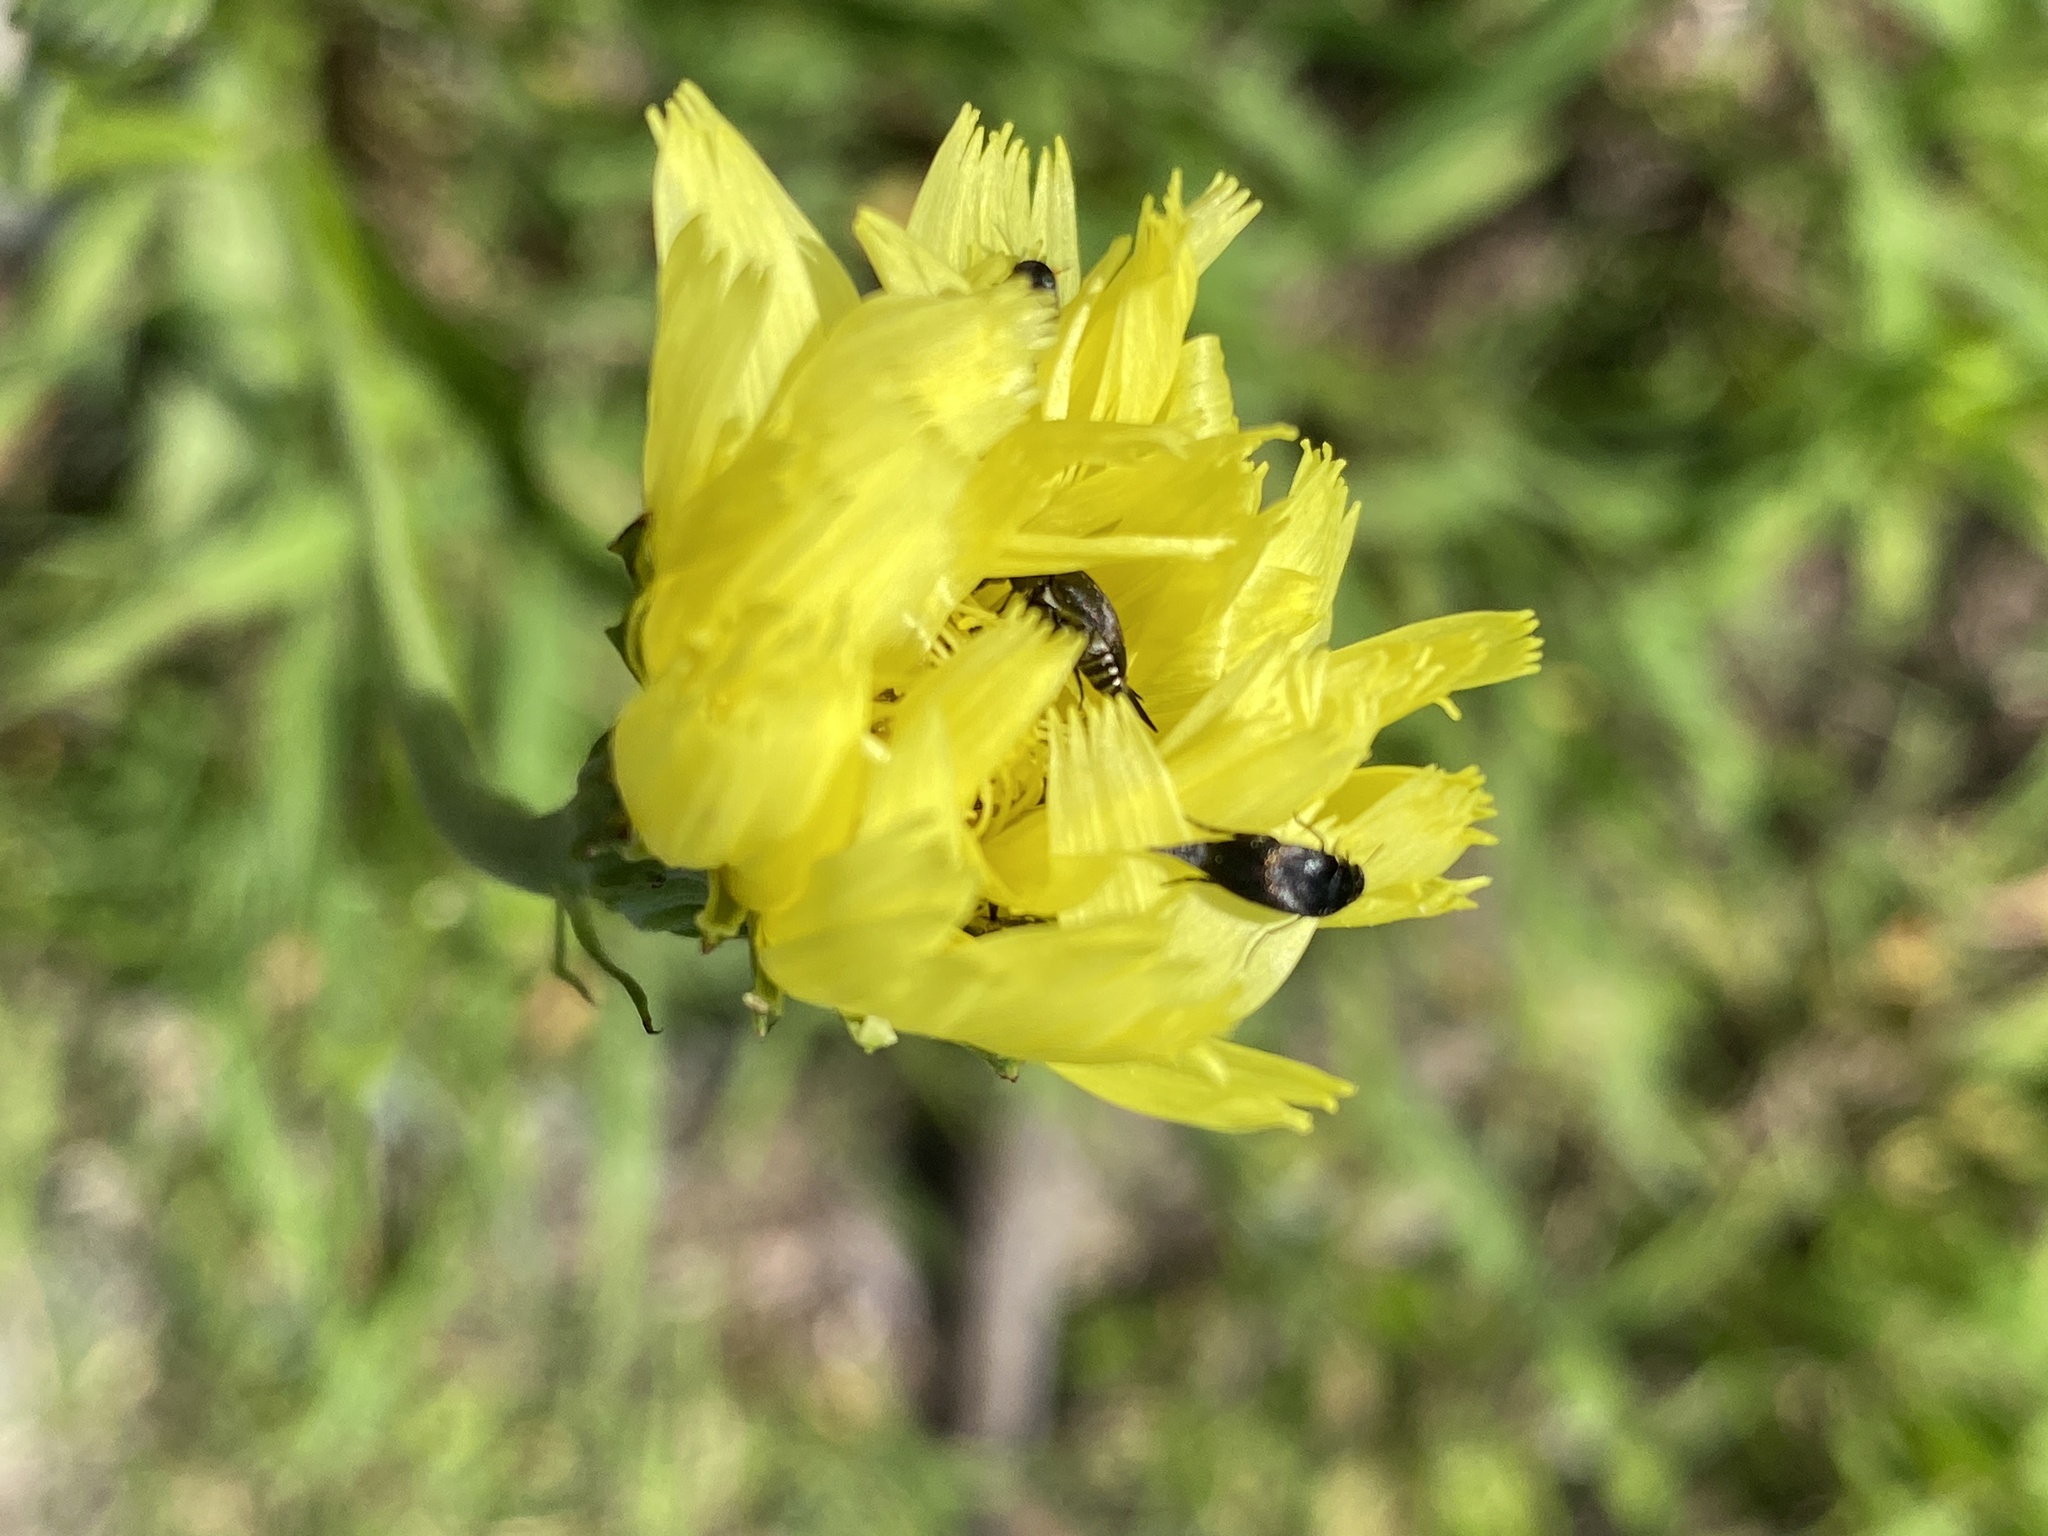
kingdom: Plantae
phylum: Tracheophyta
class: Magnoliopsida
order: Asterales
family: Asteraceae
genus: Pyrrhopappus
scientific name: Pyrrhopappus carolinianus
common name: Carolina desert-chicory
